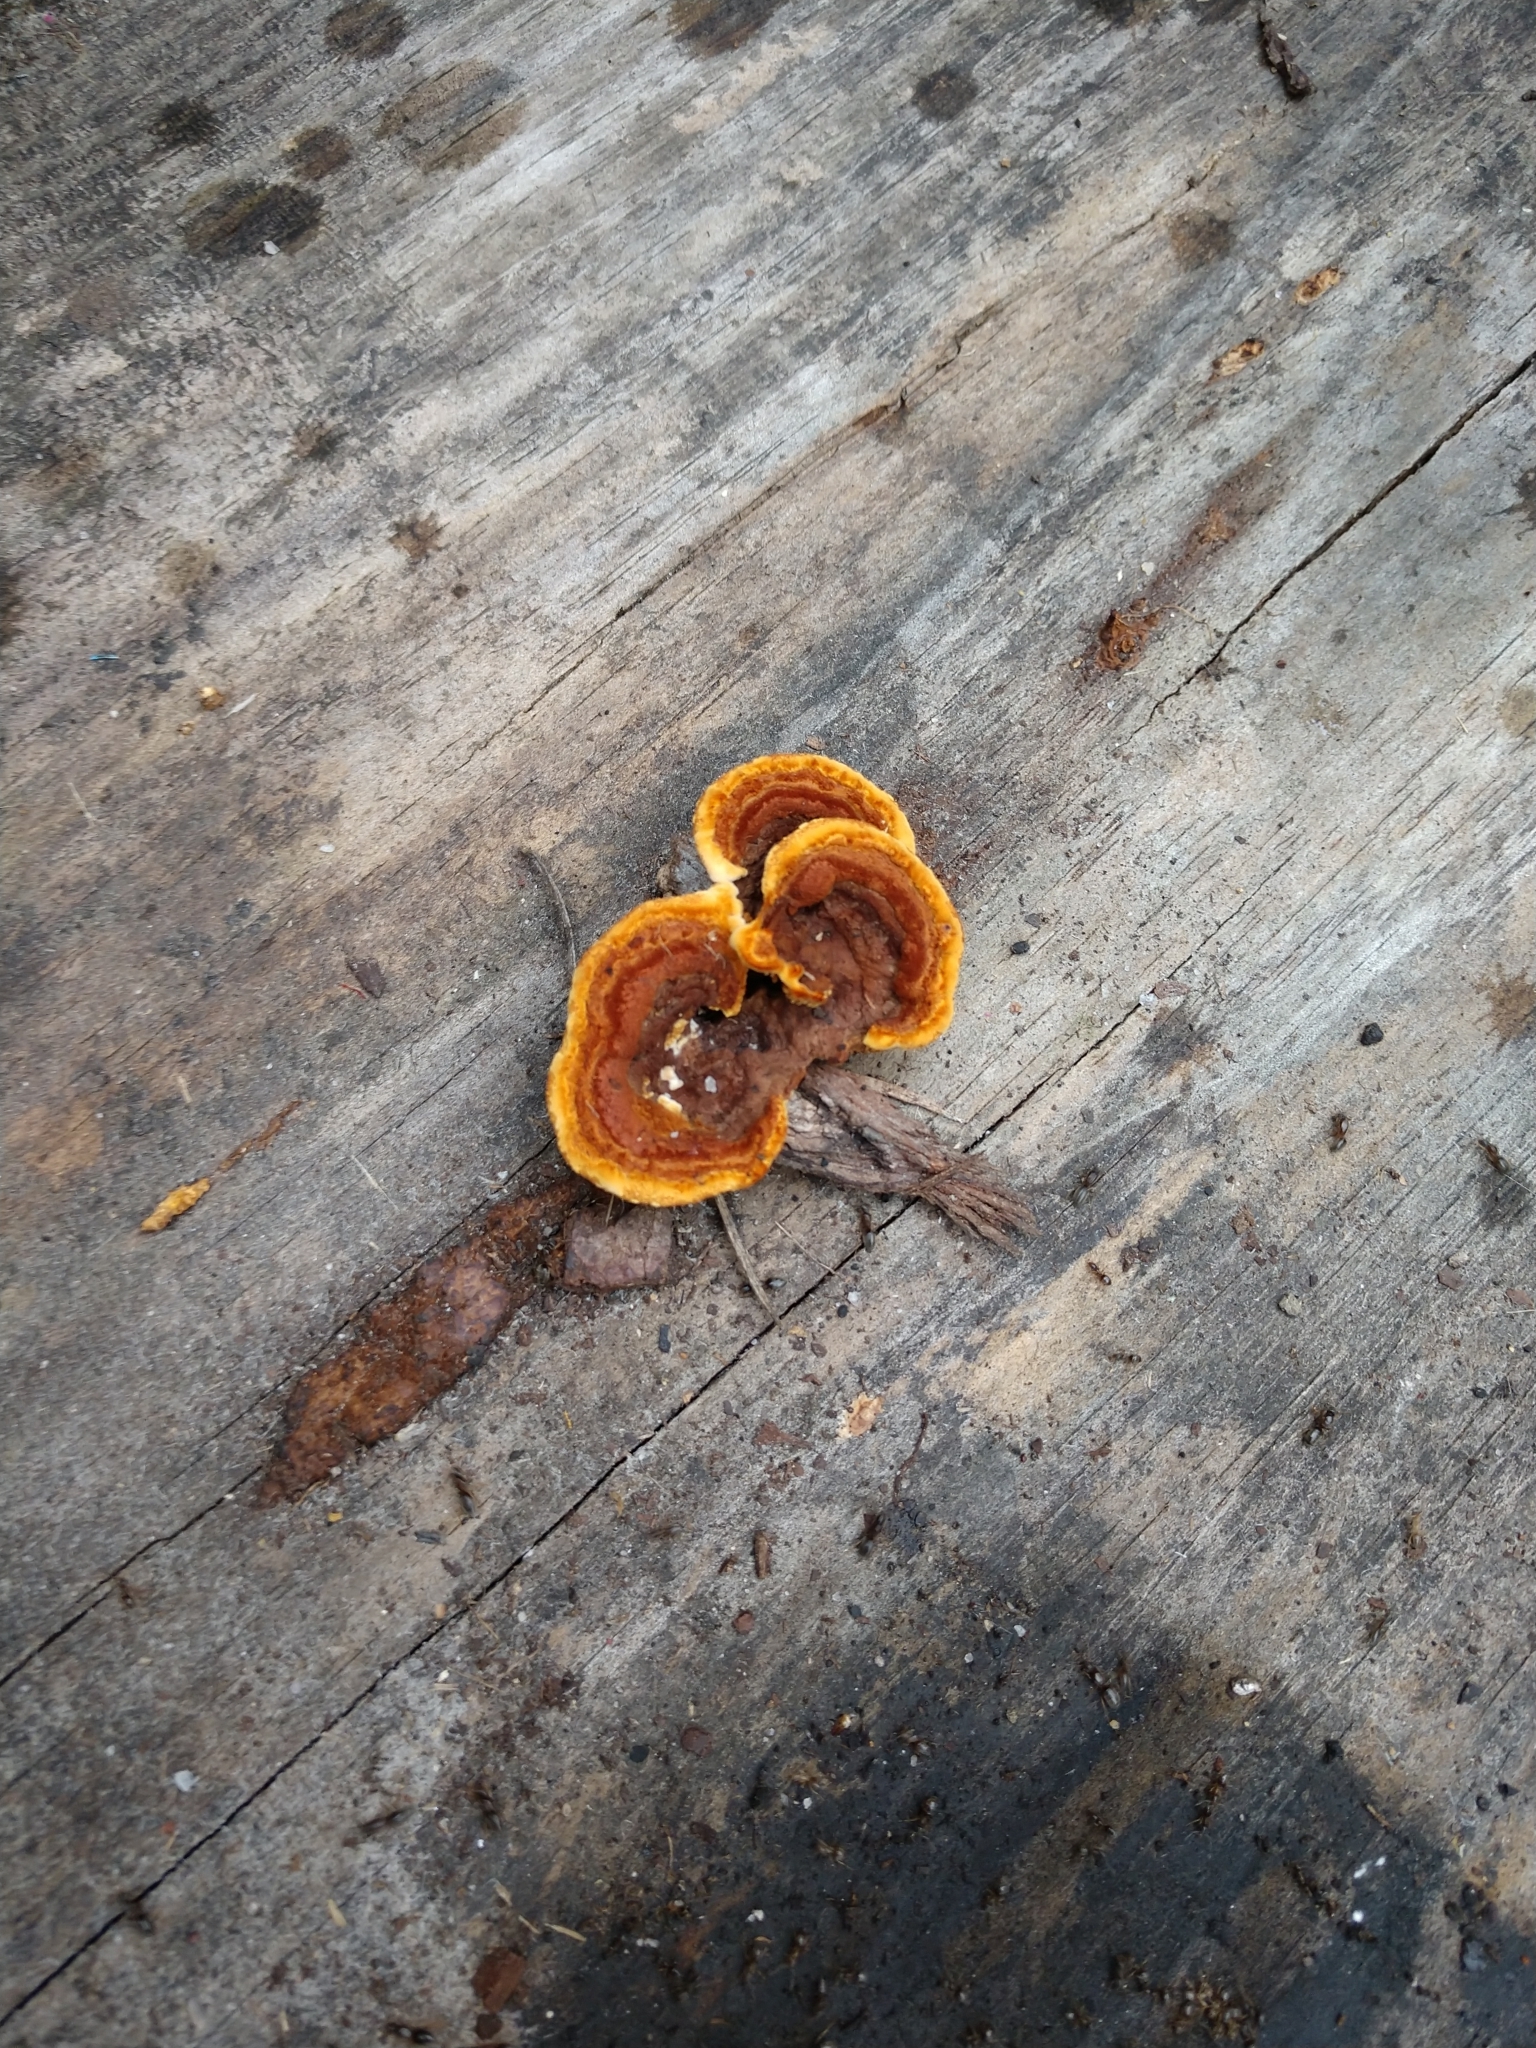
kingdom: Fungi
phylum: Basidiomycota
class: Agaricomycetes
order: Gloeophyllales
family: Gloeophyllaceae
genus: Gloeophyllum
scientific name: Gloeophyllum sepiarium
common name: Conifer mazegill
